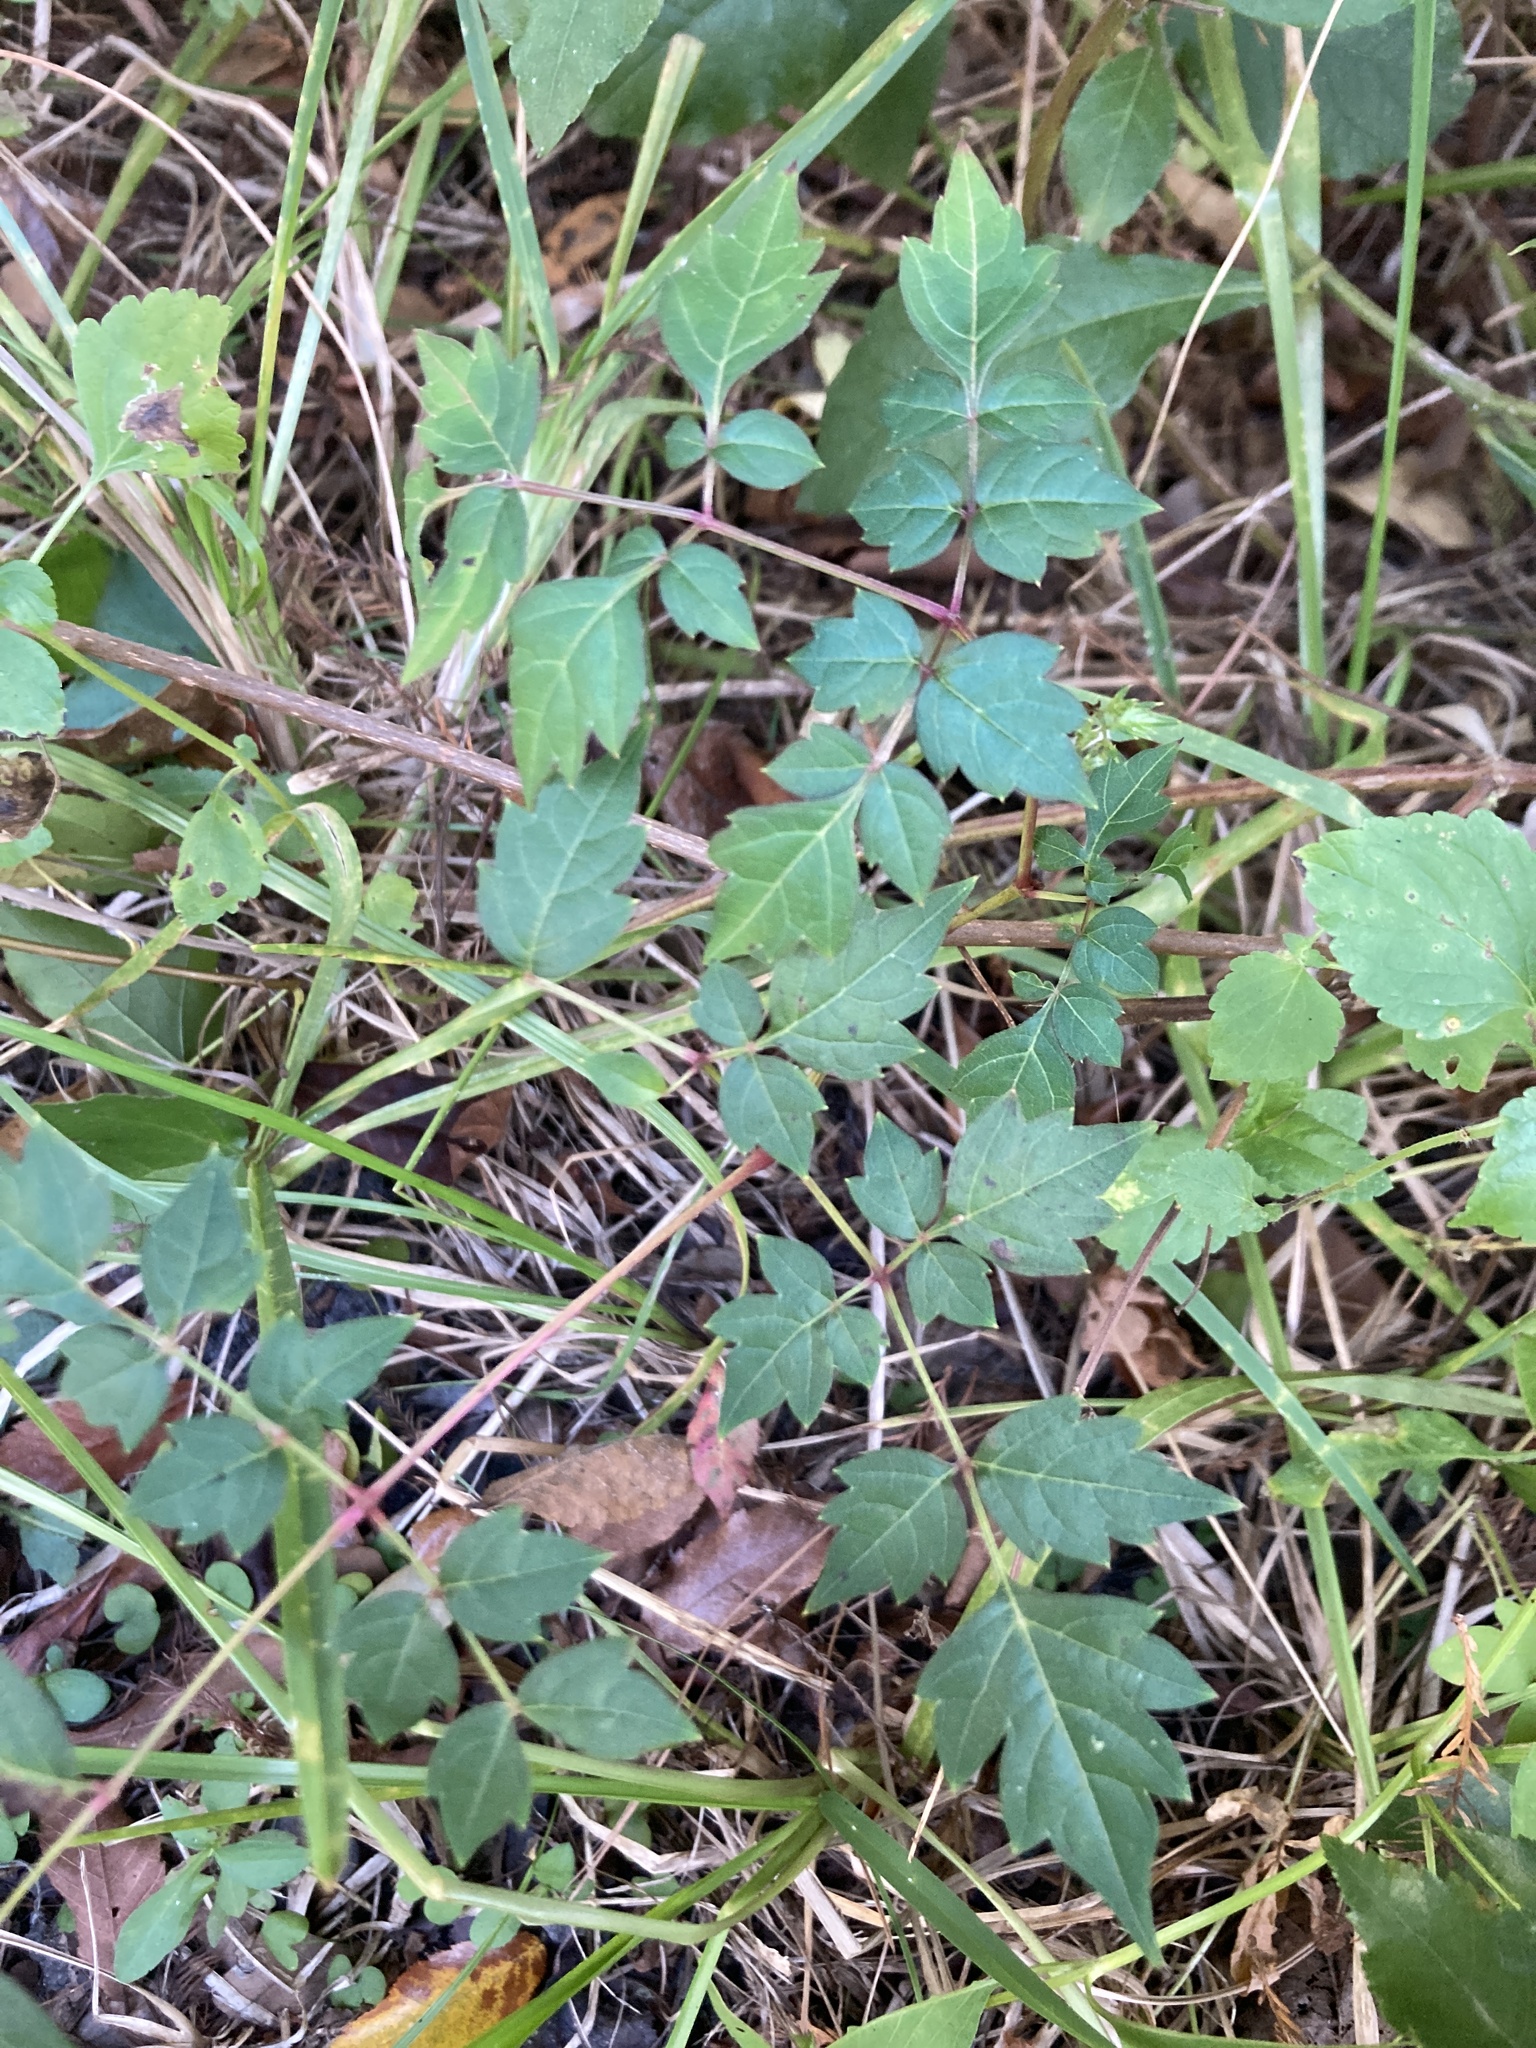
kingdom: Plantae
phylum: Tracheophyta
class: Magnoliopsida
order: Vitales
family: Vitaceae
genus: Nekemias
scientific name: Nekemias arborea
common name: Peppervine
